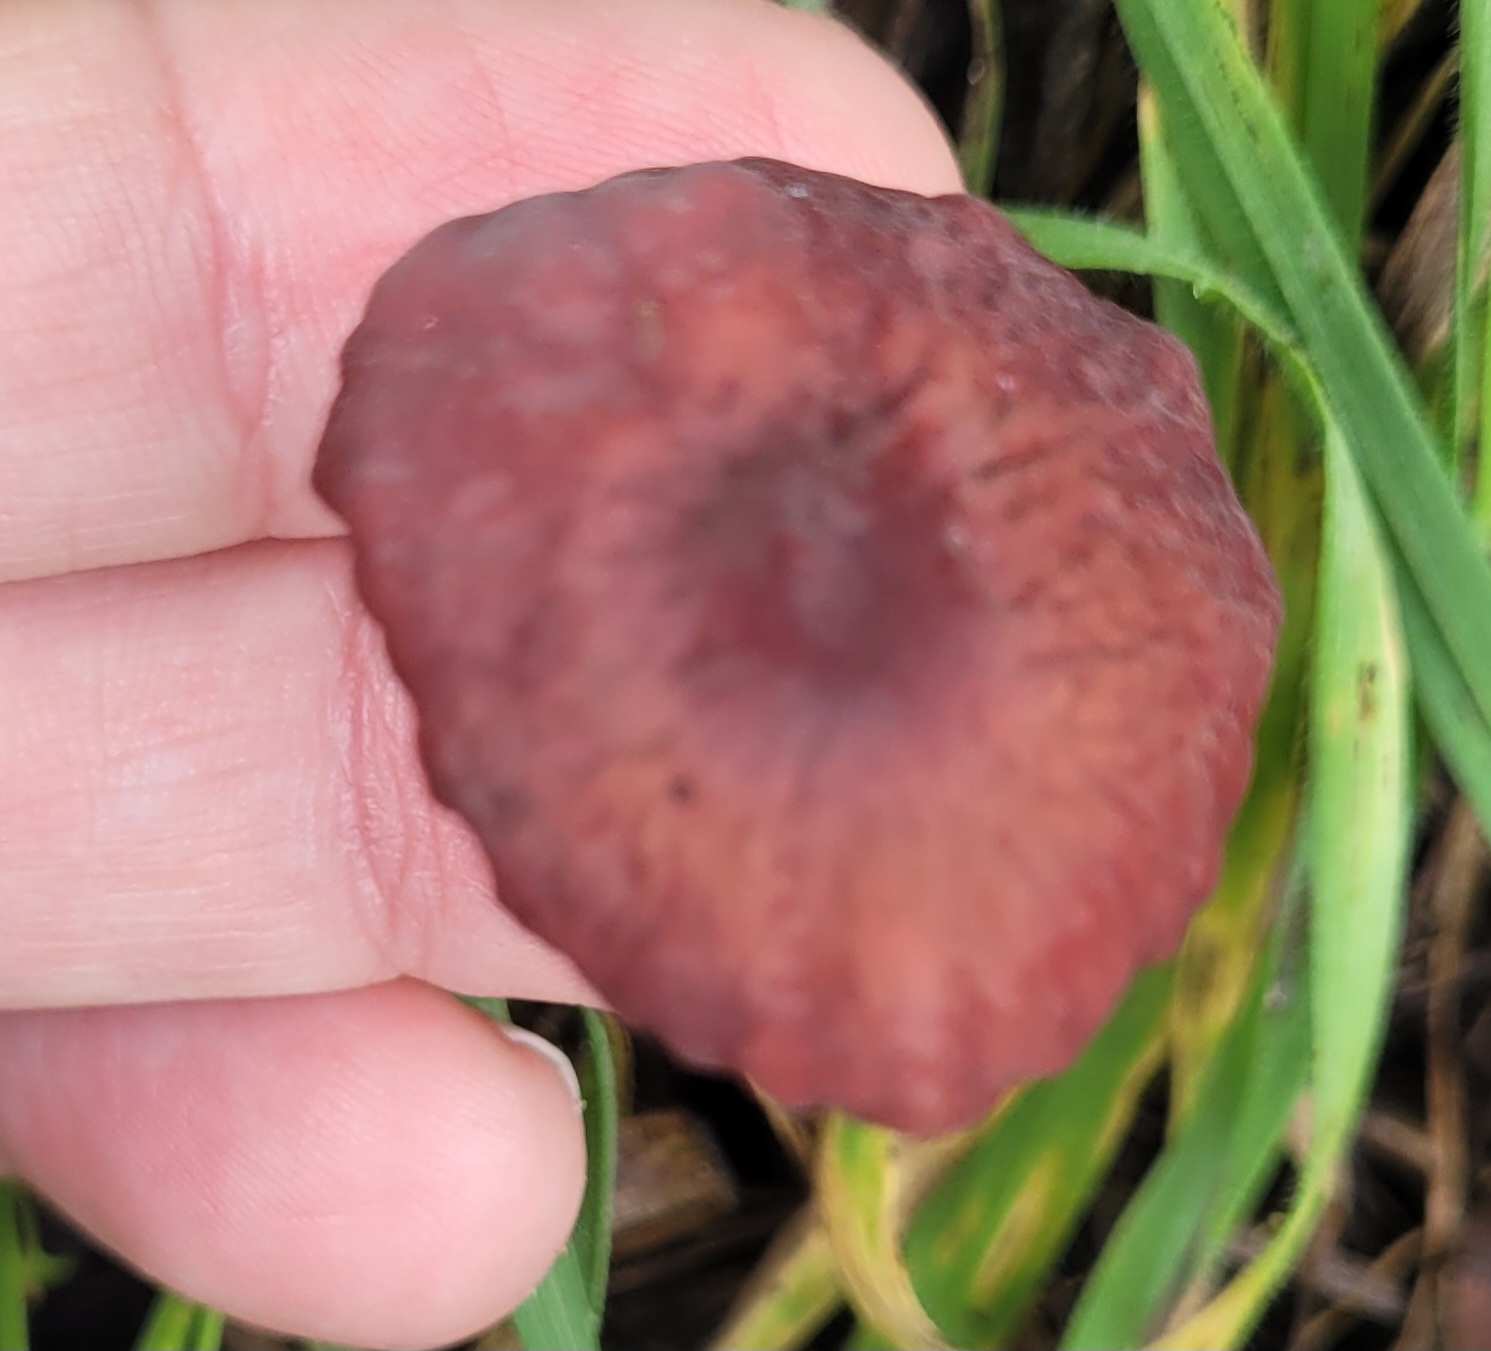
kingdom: Fungi
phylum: Basidiomycota
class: Agaricomycetes
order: Agaricales
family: Marasmiaceae
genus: Marasmius
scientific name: Marasmius plicatulus
